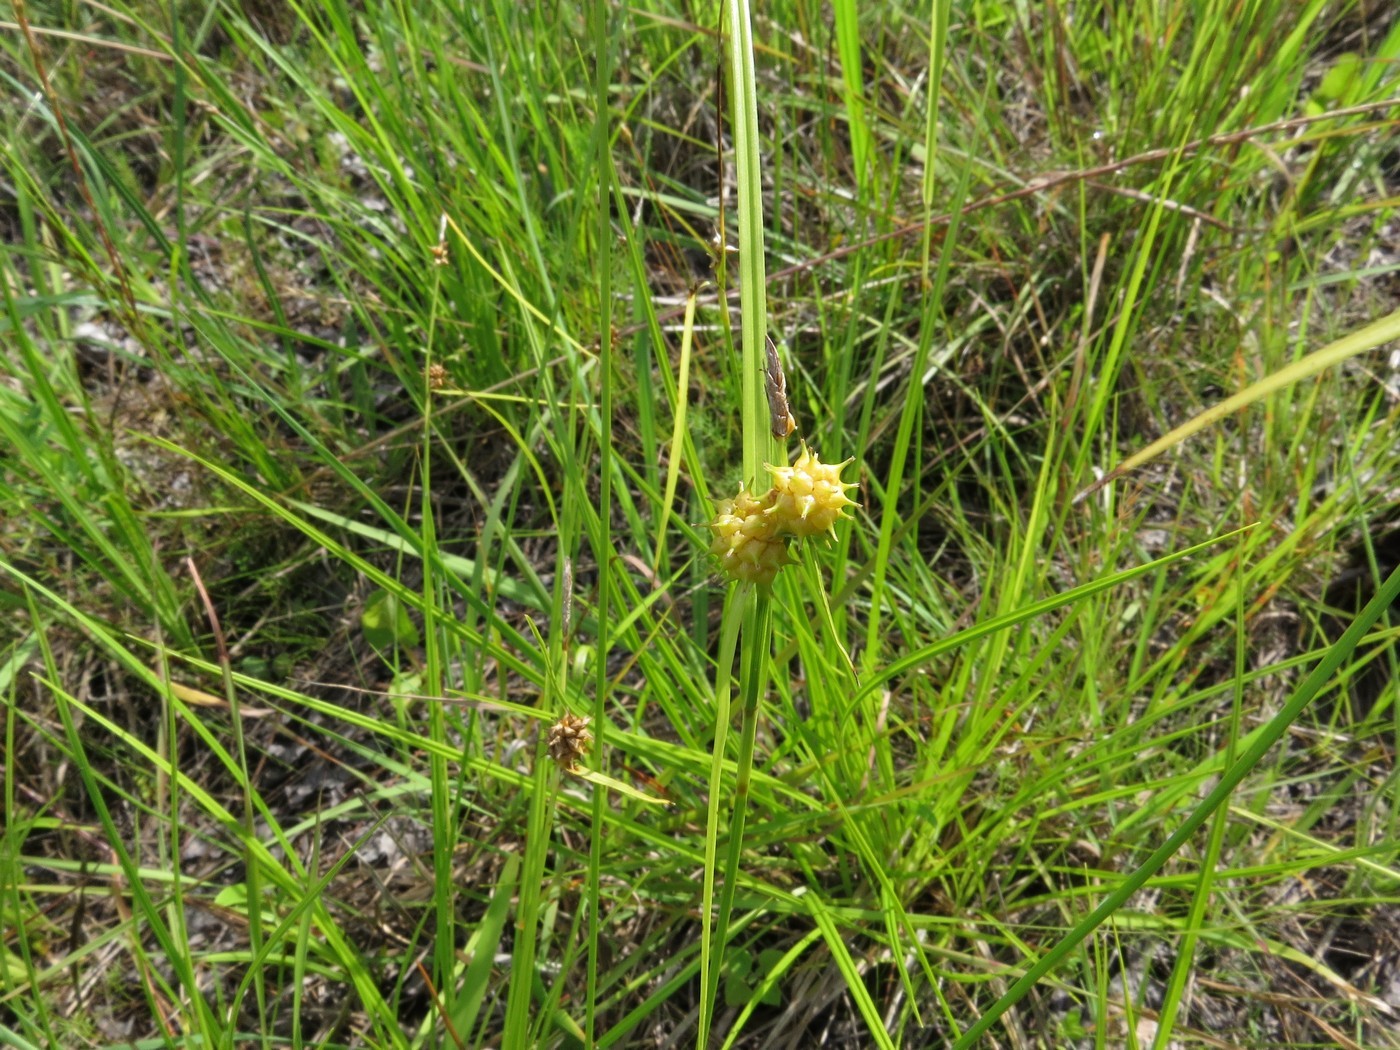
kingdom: Plantae
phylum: Tracheophyta
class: Liliopsida
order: Poales
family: Cyperaceae
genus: Carex
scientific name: Carex lutea
